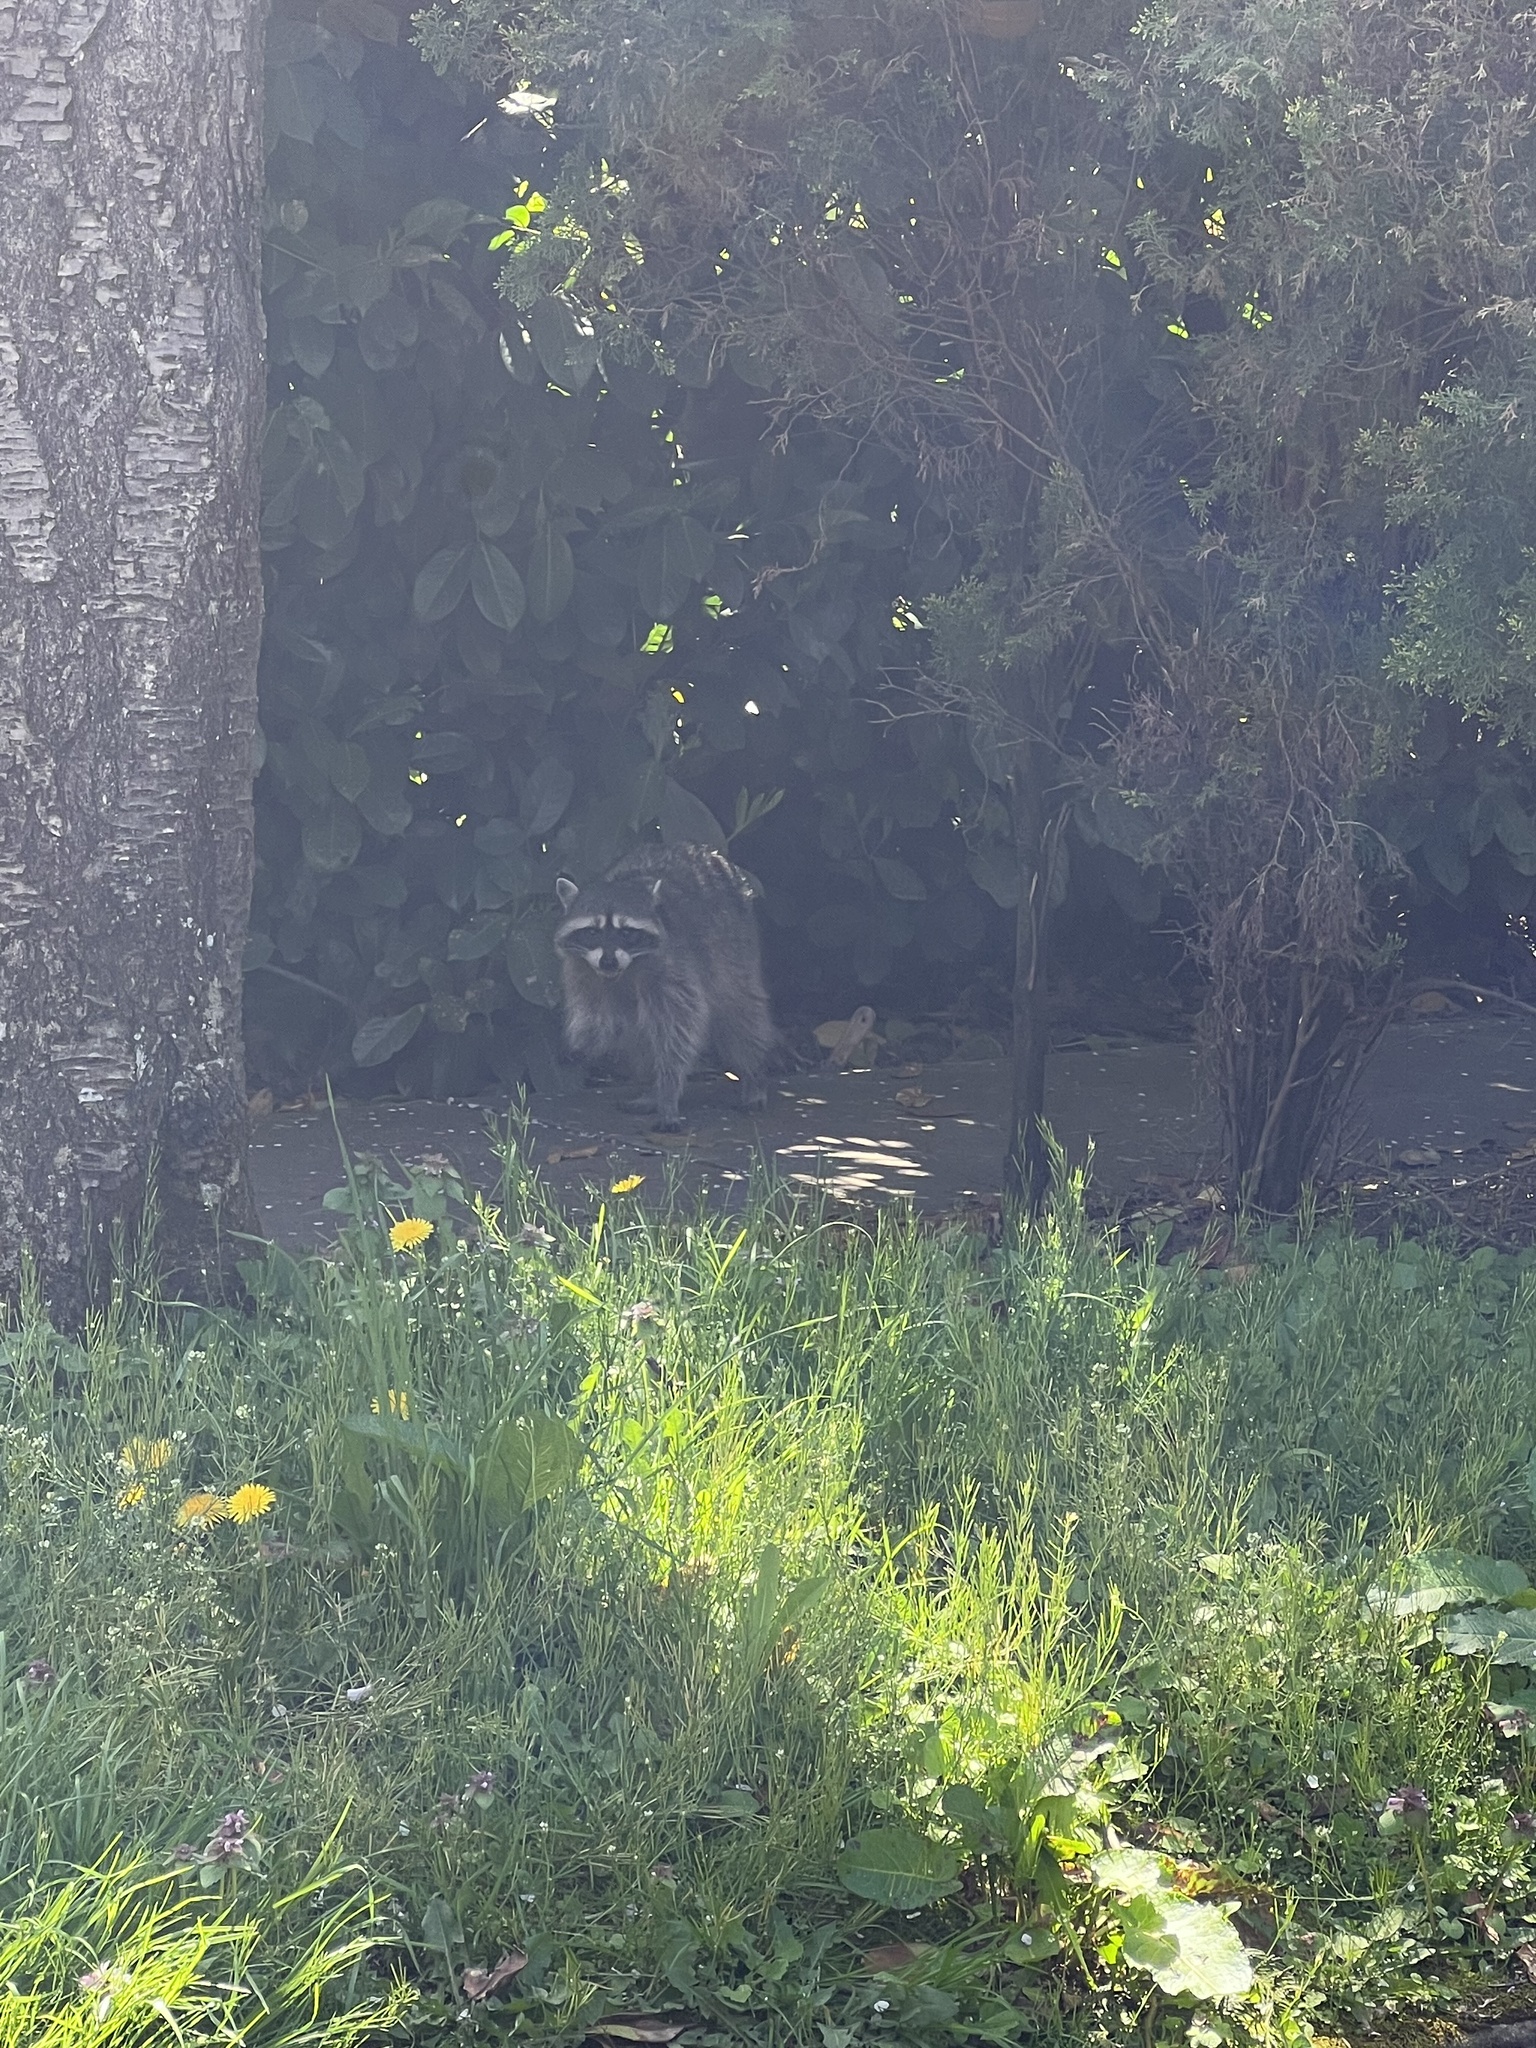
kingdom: Animalia
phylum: Chordata
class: Mammalia
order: Carnivora
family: Procyonidae
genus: Procyon
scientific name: Procyon lotor
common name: Raccoon
